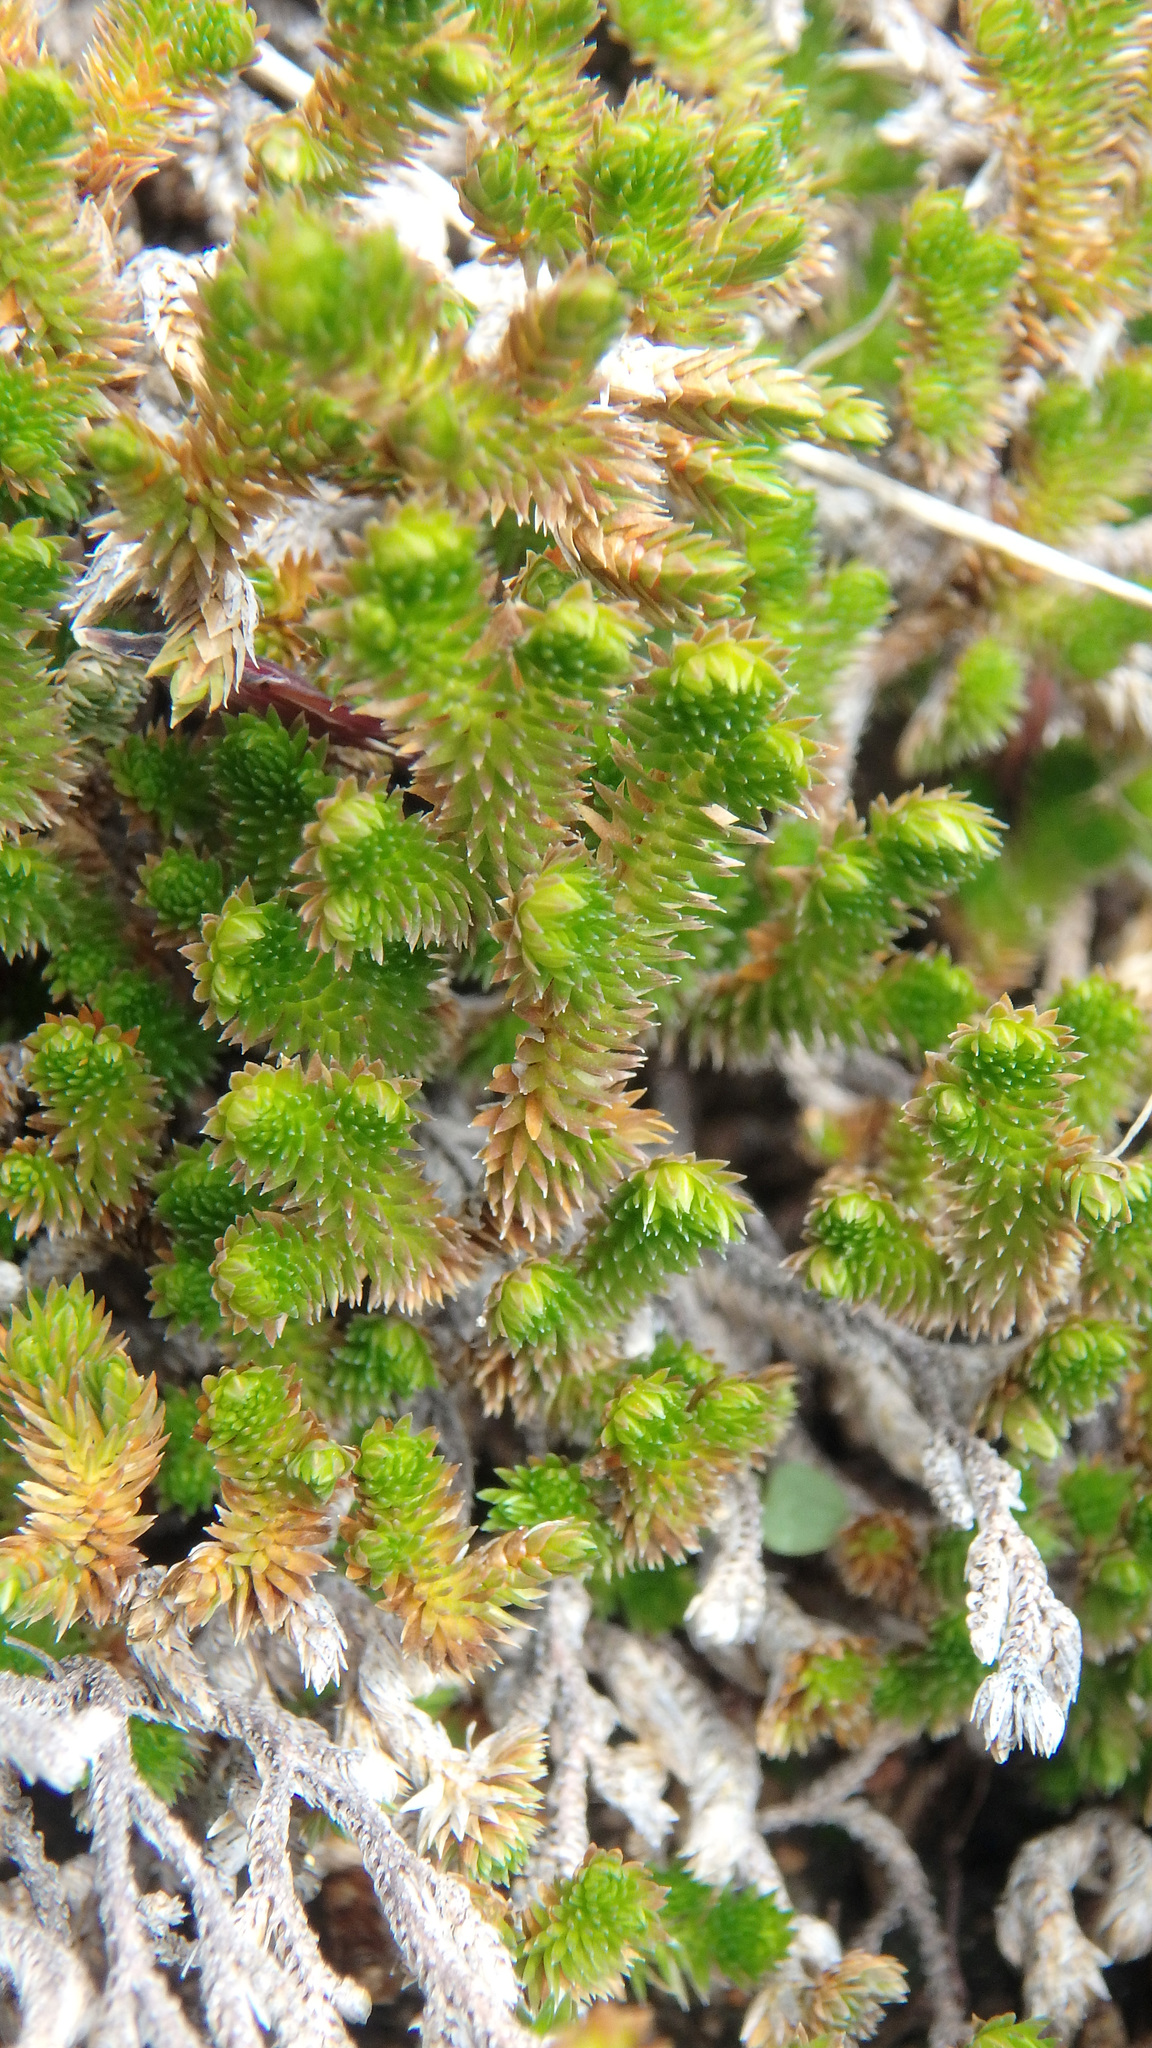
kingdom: Plantae
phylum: Tracheophyta
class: Lycopodiopsida
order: Selaginellales
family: Selaginellaceae
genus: Selaginella
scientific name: Selaginella arizonica
